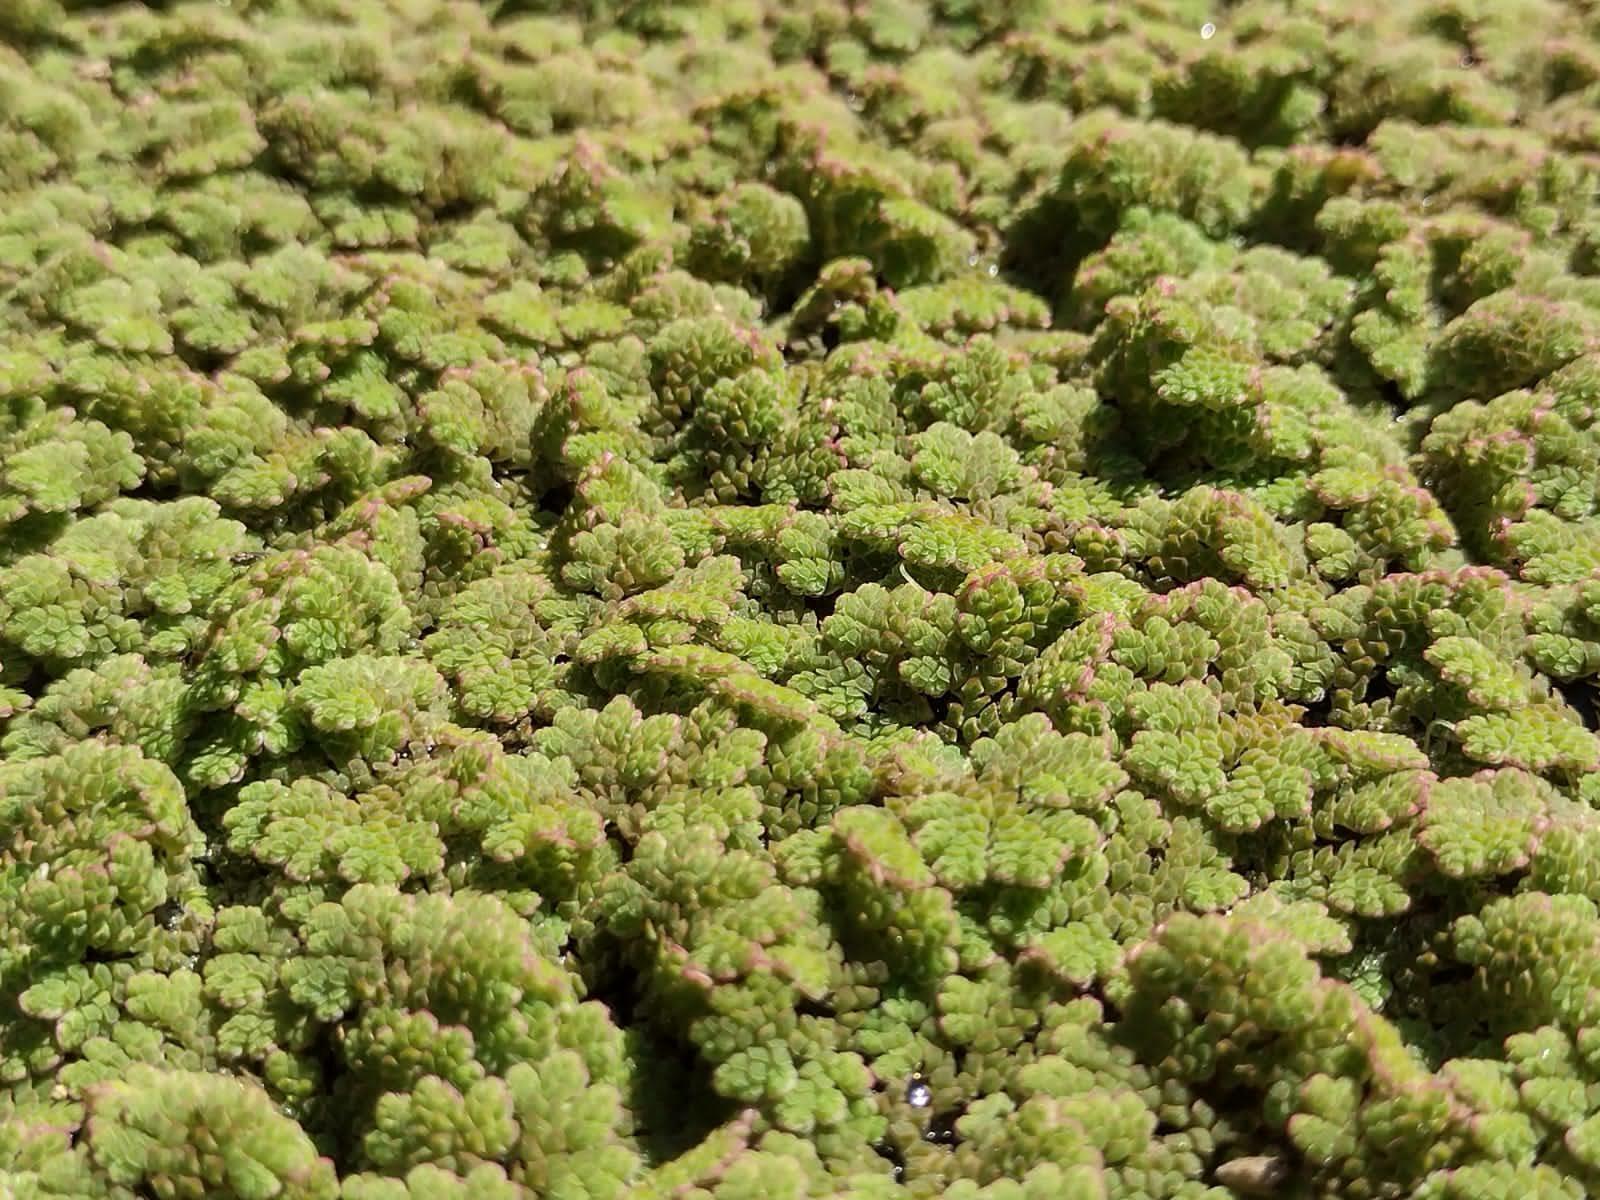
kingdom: Plantae
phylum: Tracheophyta
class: Polypodiopsida
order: Salviniales
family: Salviniaceae
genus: Azolla
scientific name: Azolla filiculoides
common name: Water fern
